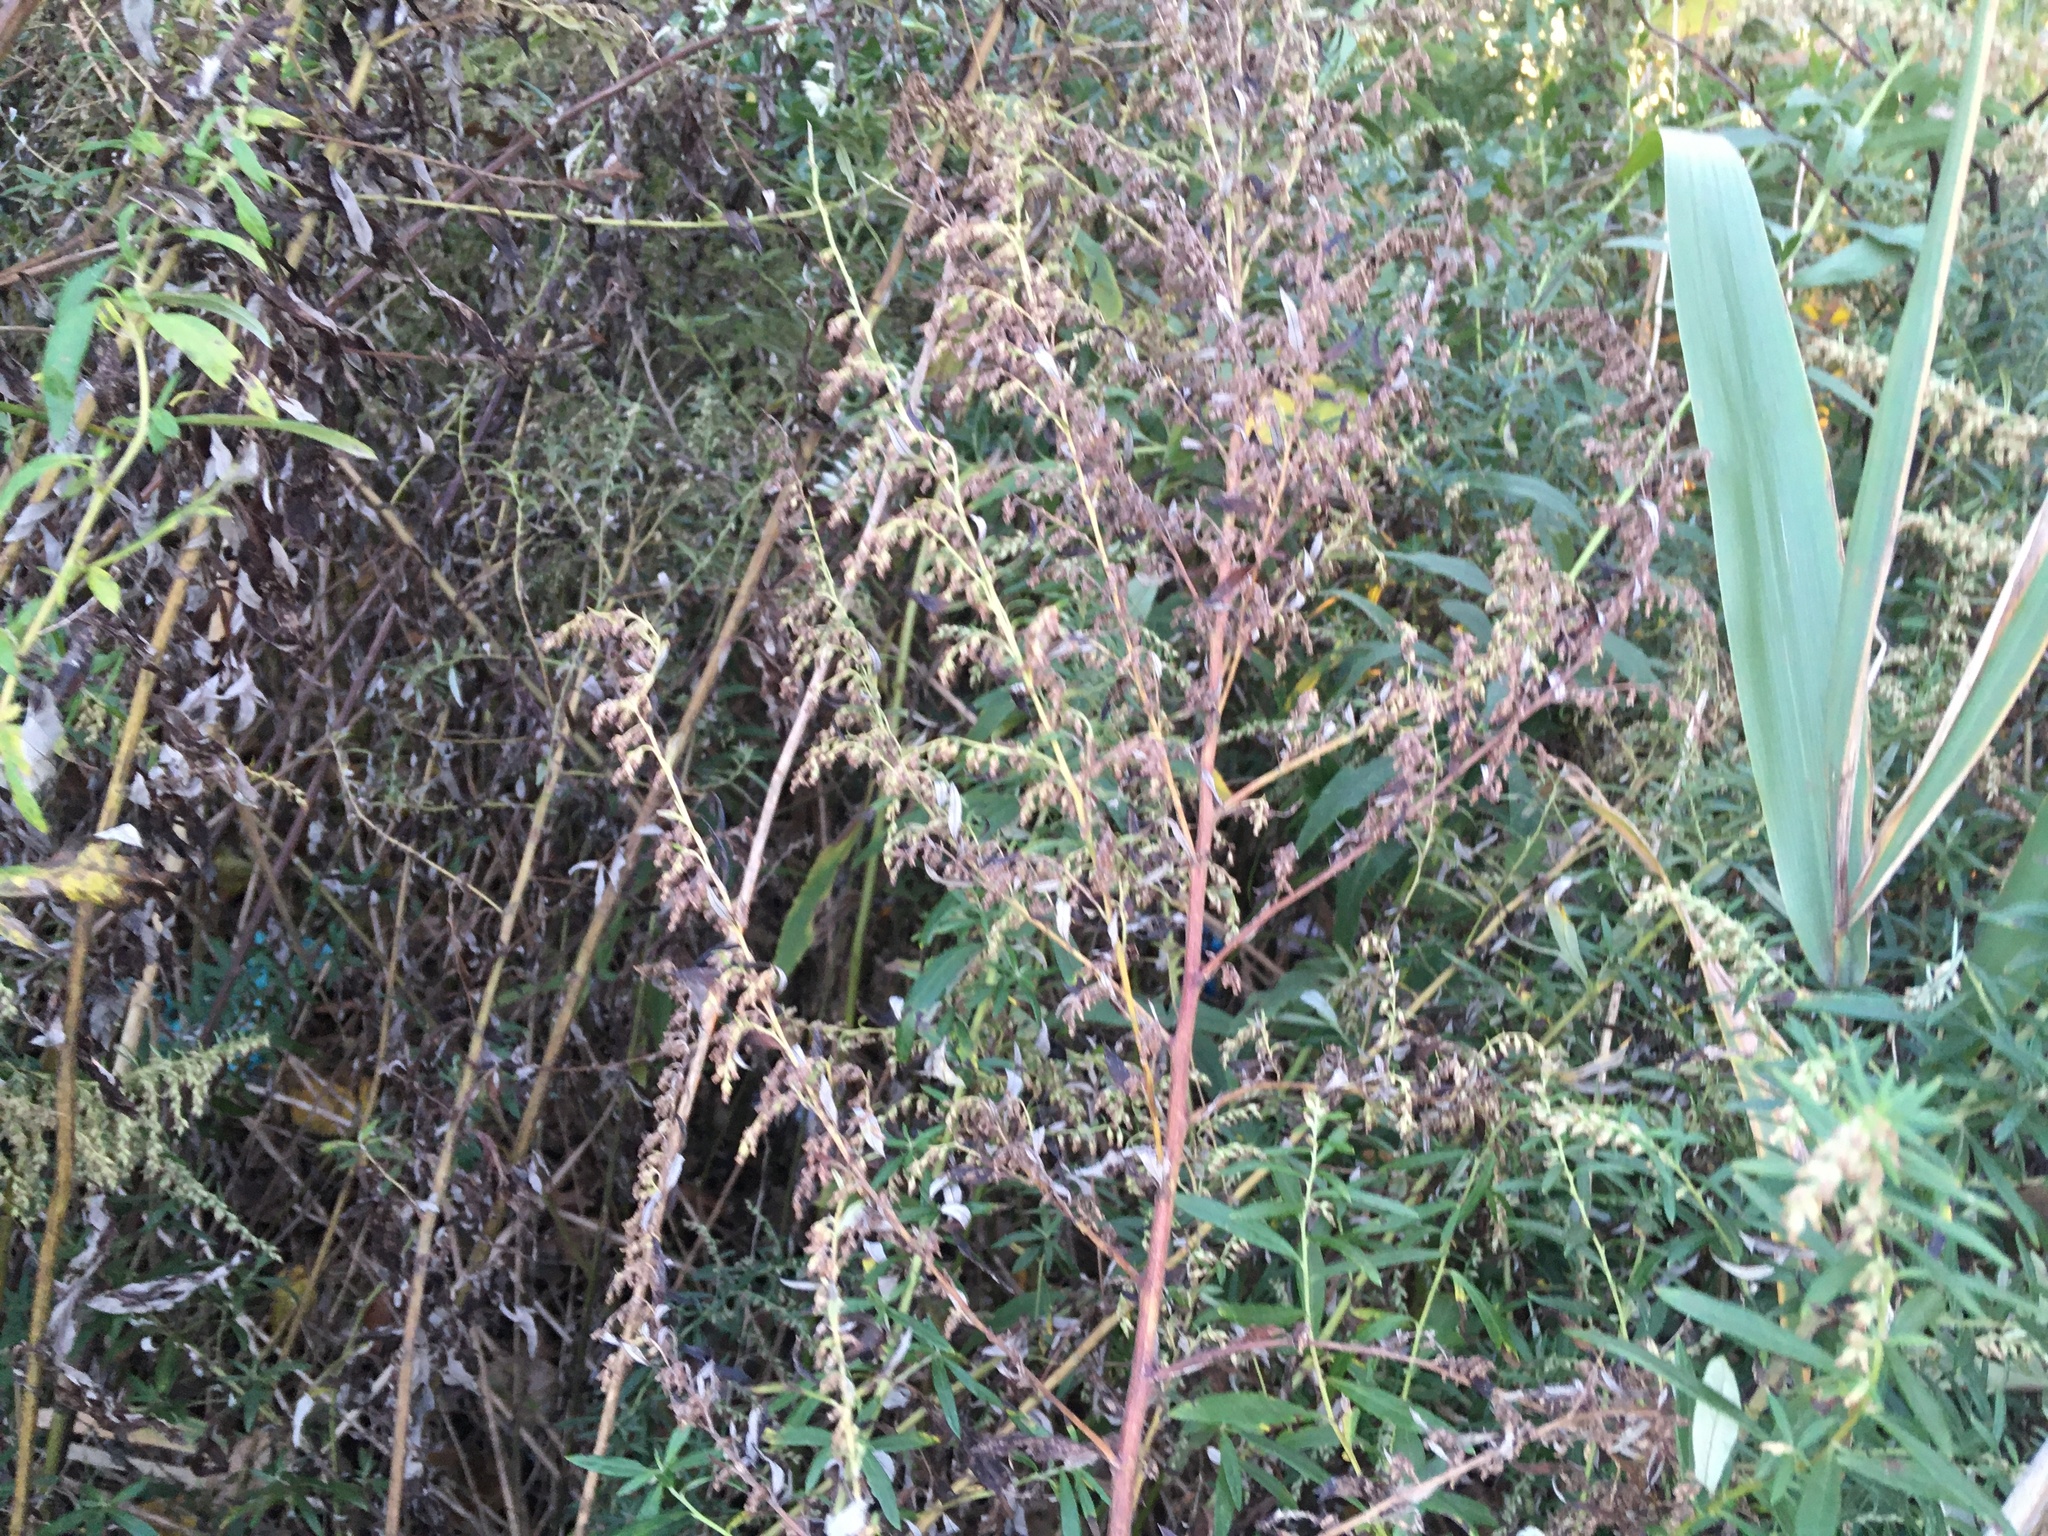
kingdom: Plantae
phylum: Tracheophyta
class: Magnoliopsida
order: Asterales
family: Asteraceae
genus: Artemisia
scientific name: Artemisia vulgaris
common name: Mugwort
